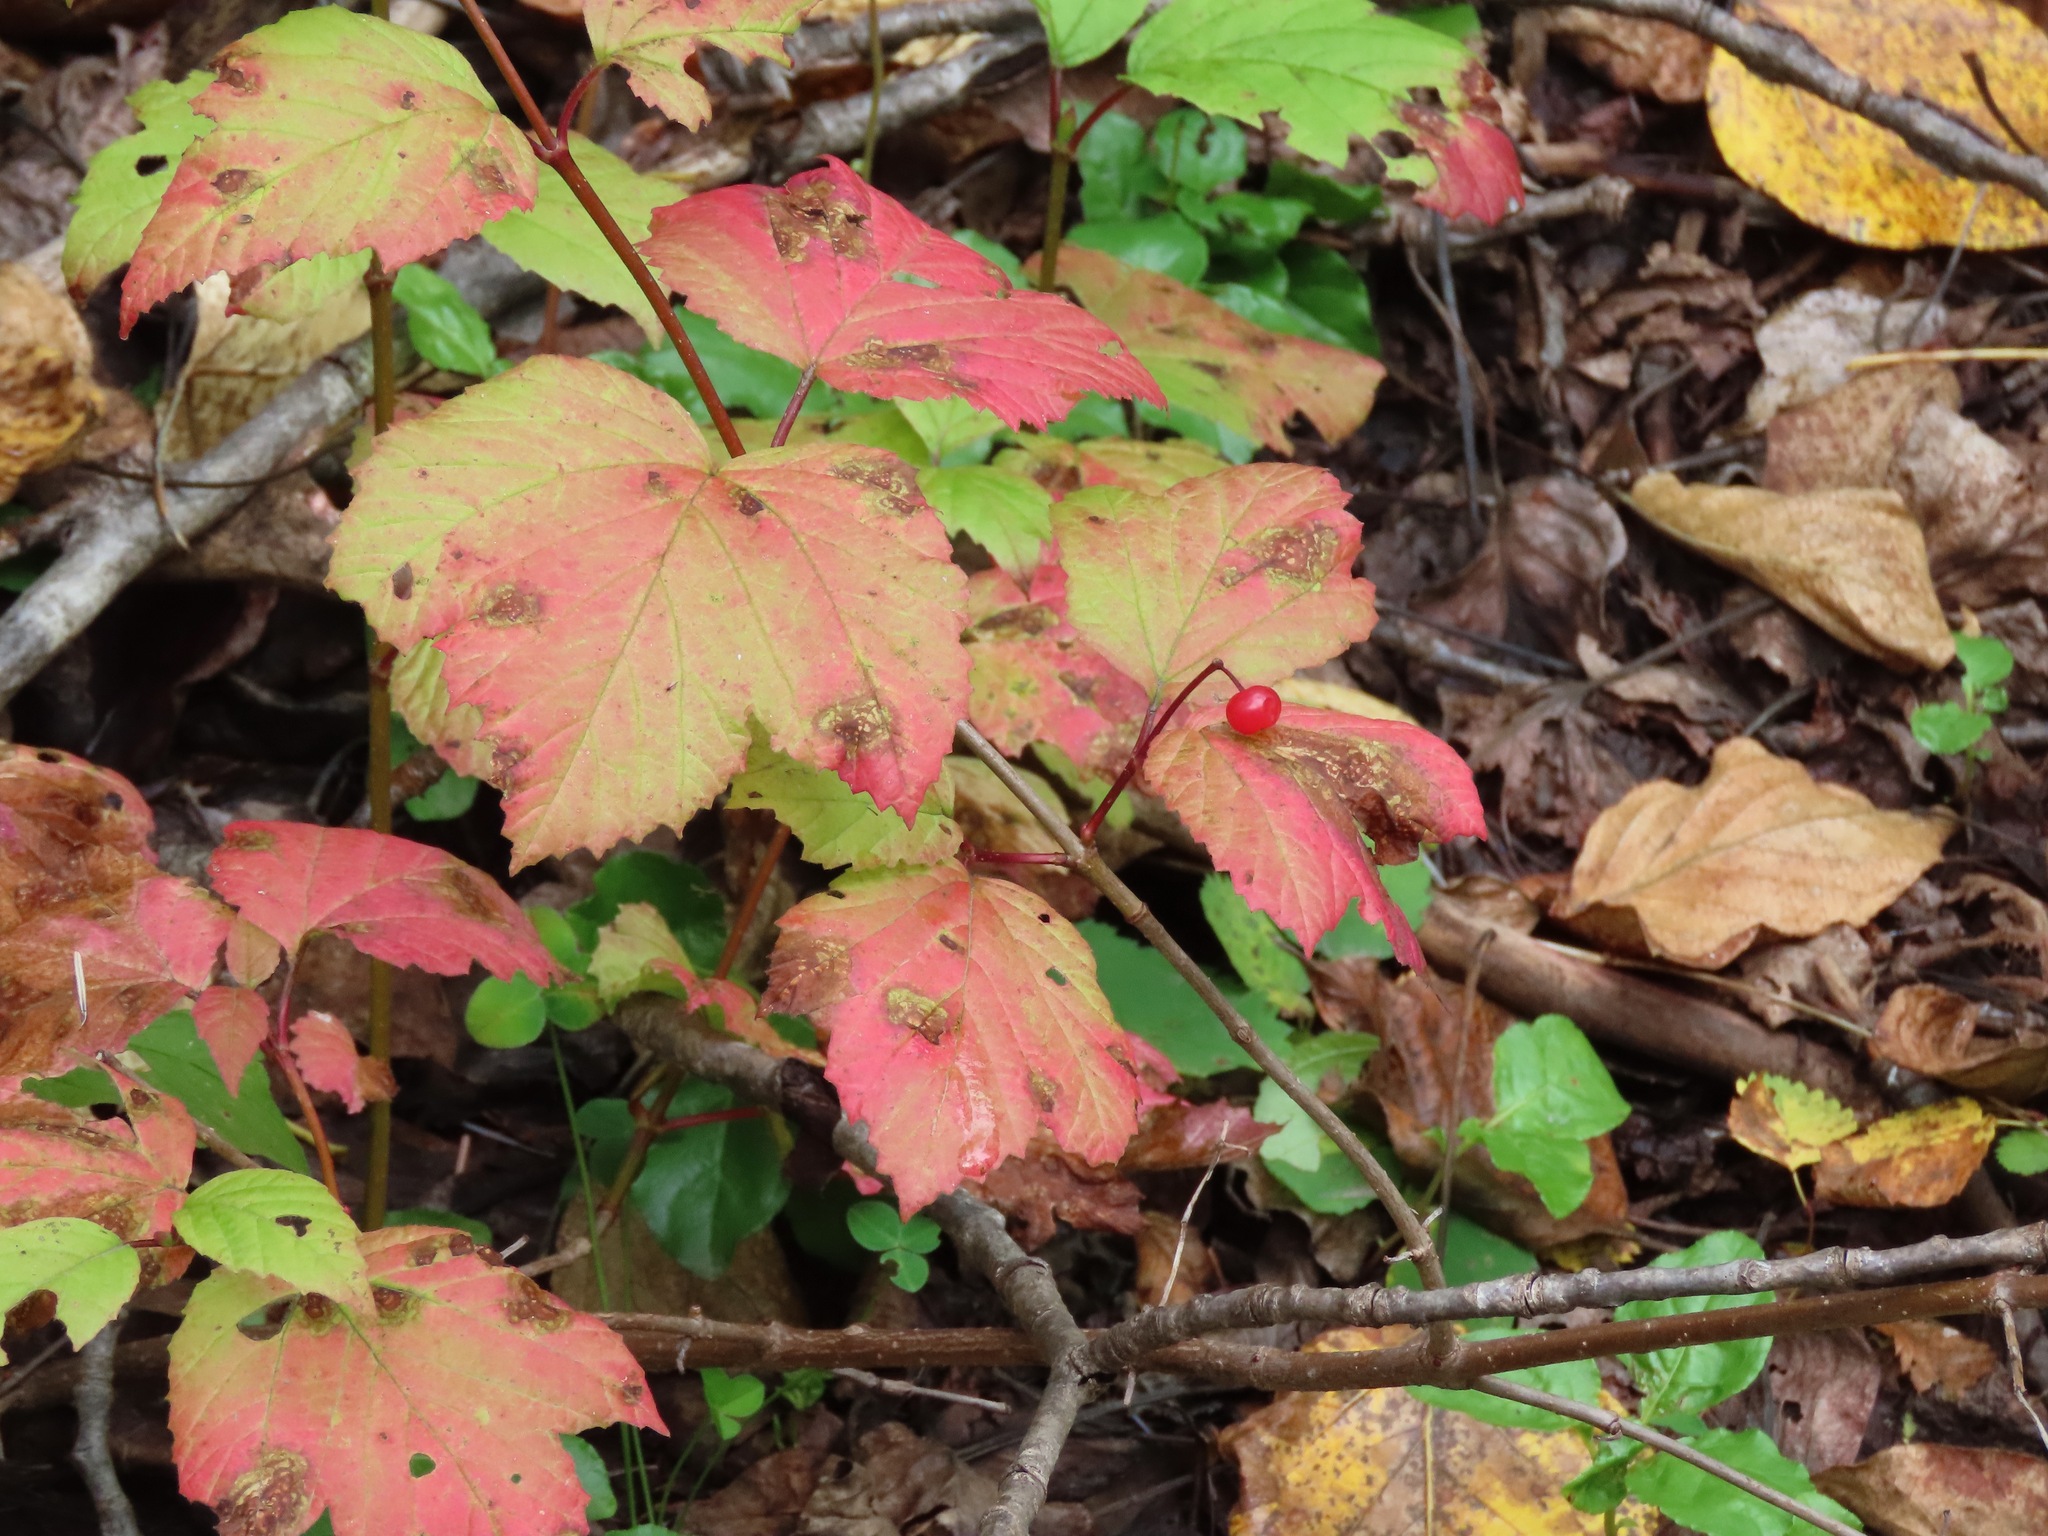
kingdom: Plantae
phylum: Tracheophyta
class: Magnoliopsida
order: Dipsacales
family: Viburnaceae
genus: Viburnum
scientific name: Viburnum edule
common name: Mooseberry
